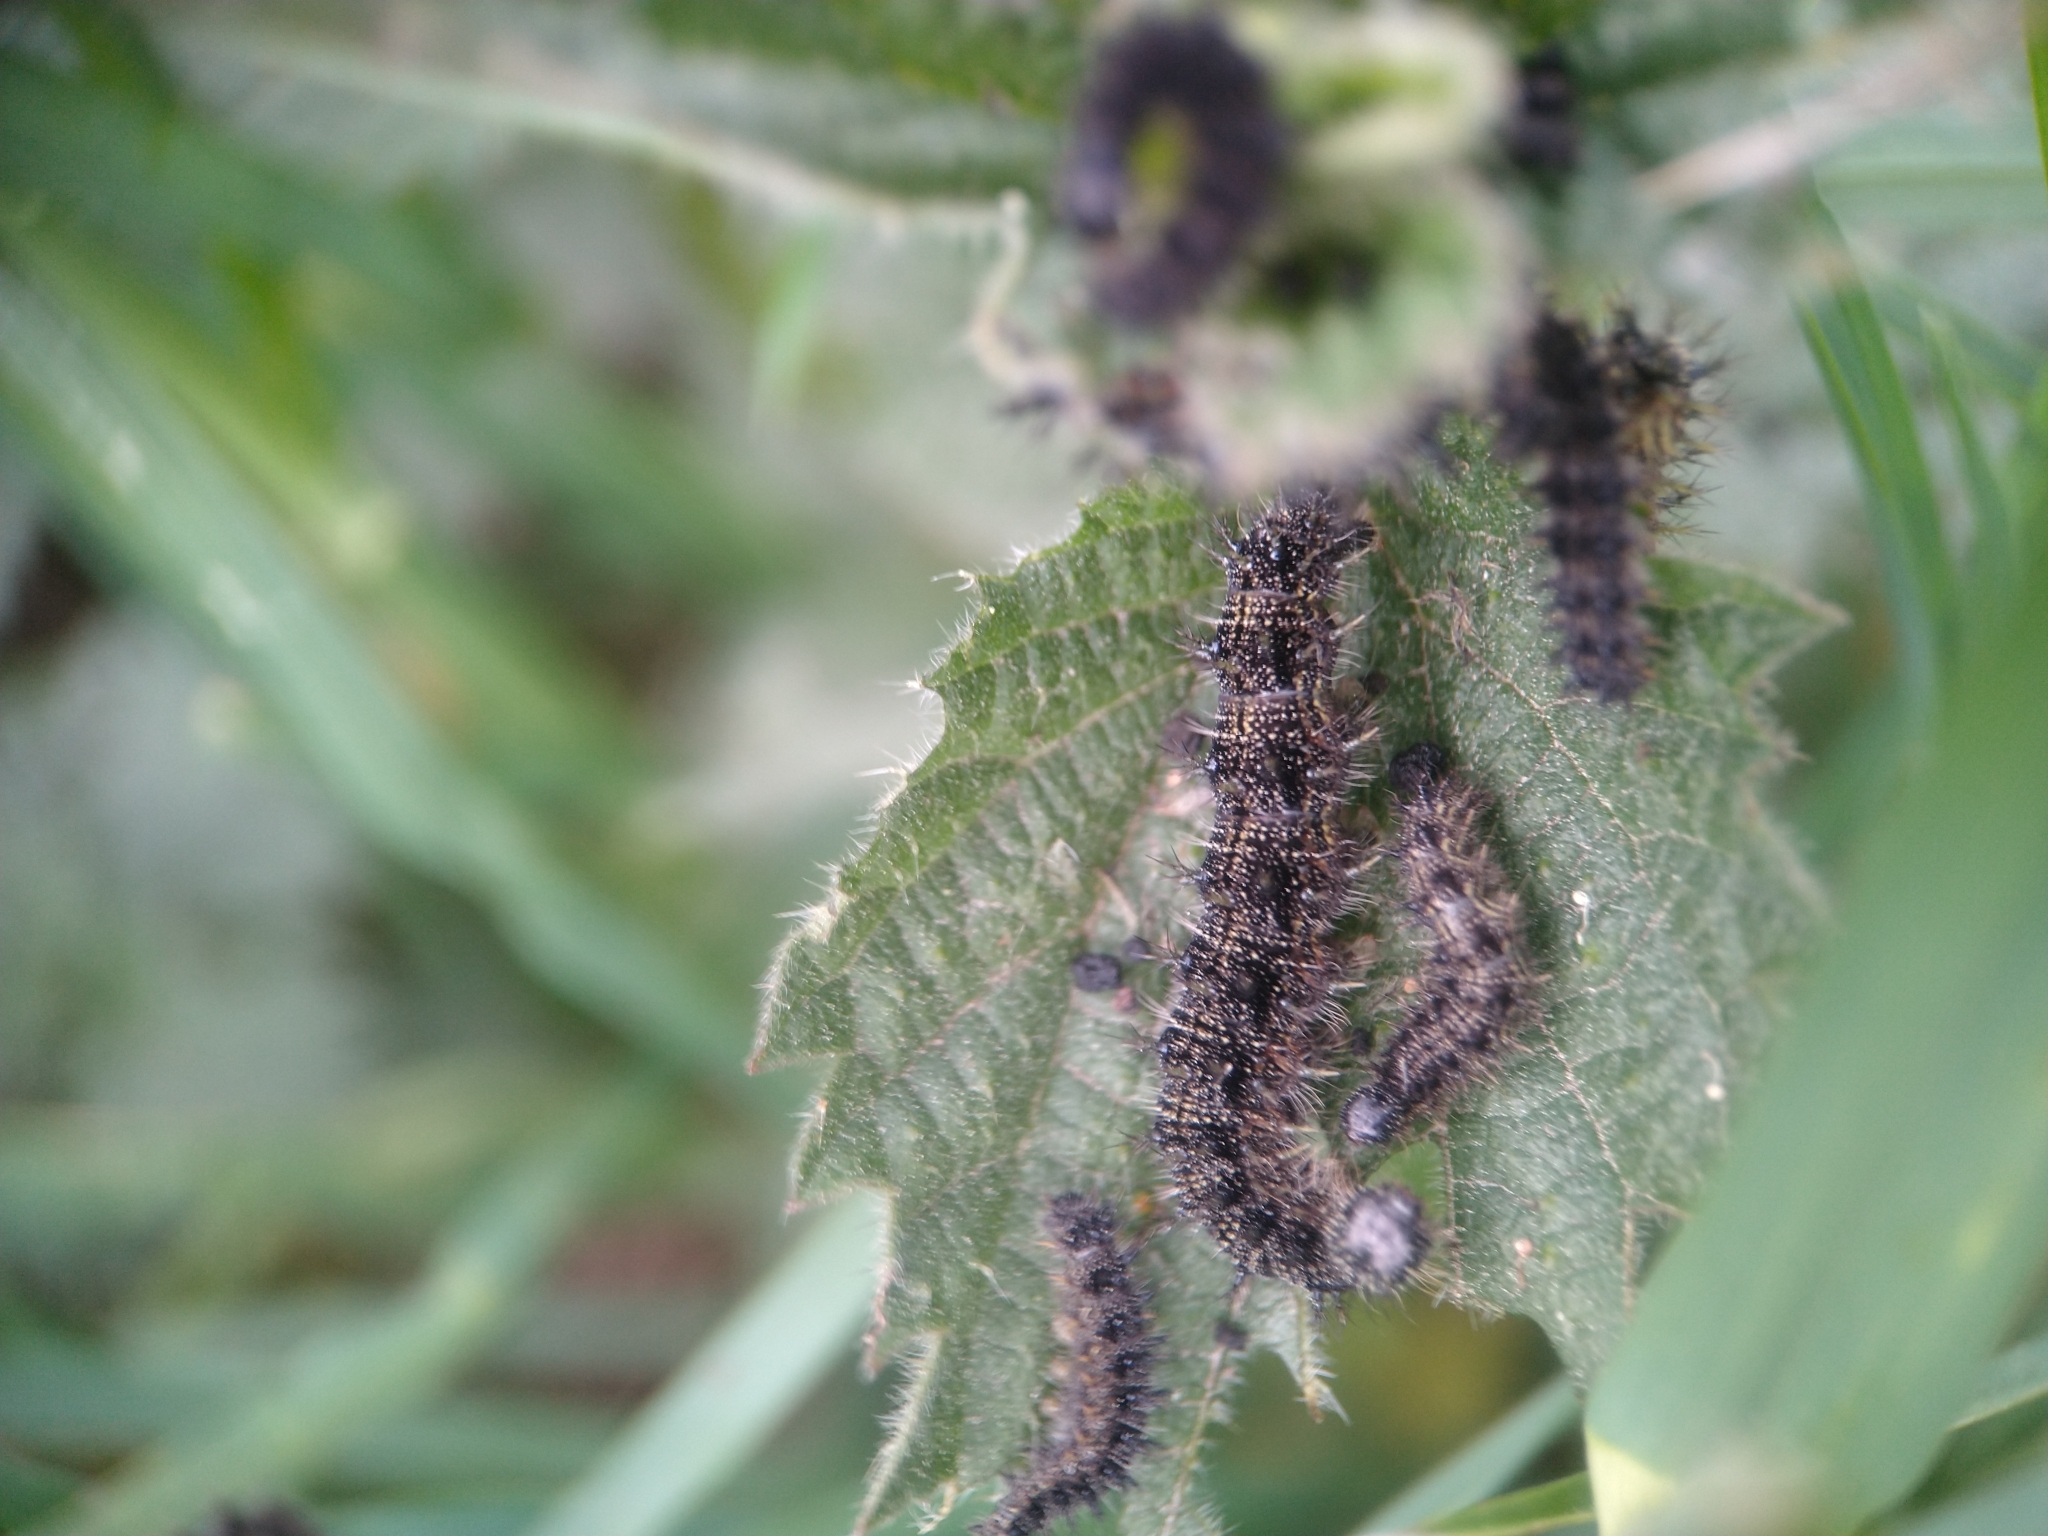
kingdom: Animalia
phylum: Arthropoda
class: Insecta
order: Lepidoptera
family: Nymphalidae
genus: Aglais
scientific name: Aglais urticae
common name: Small tortoiseshell
